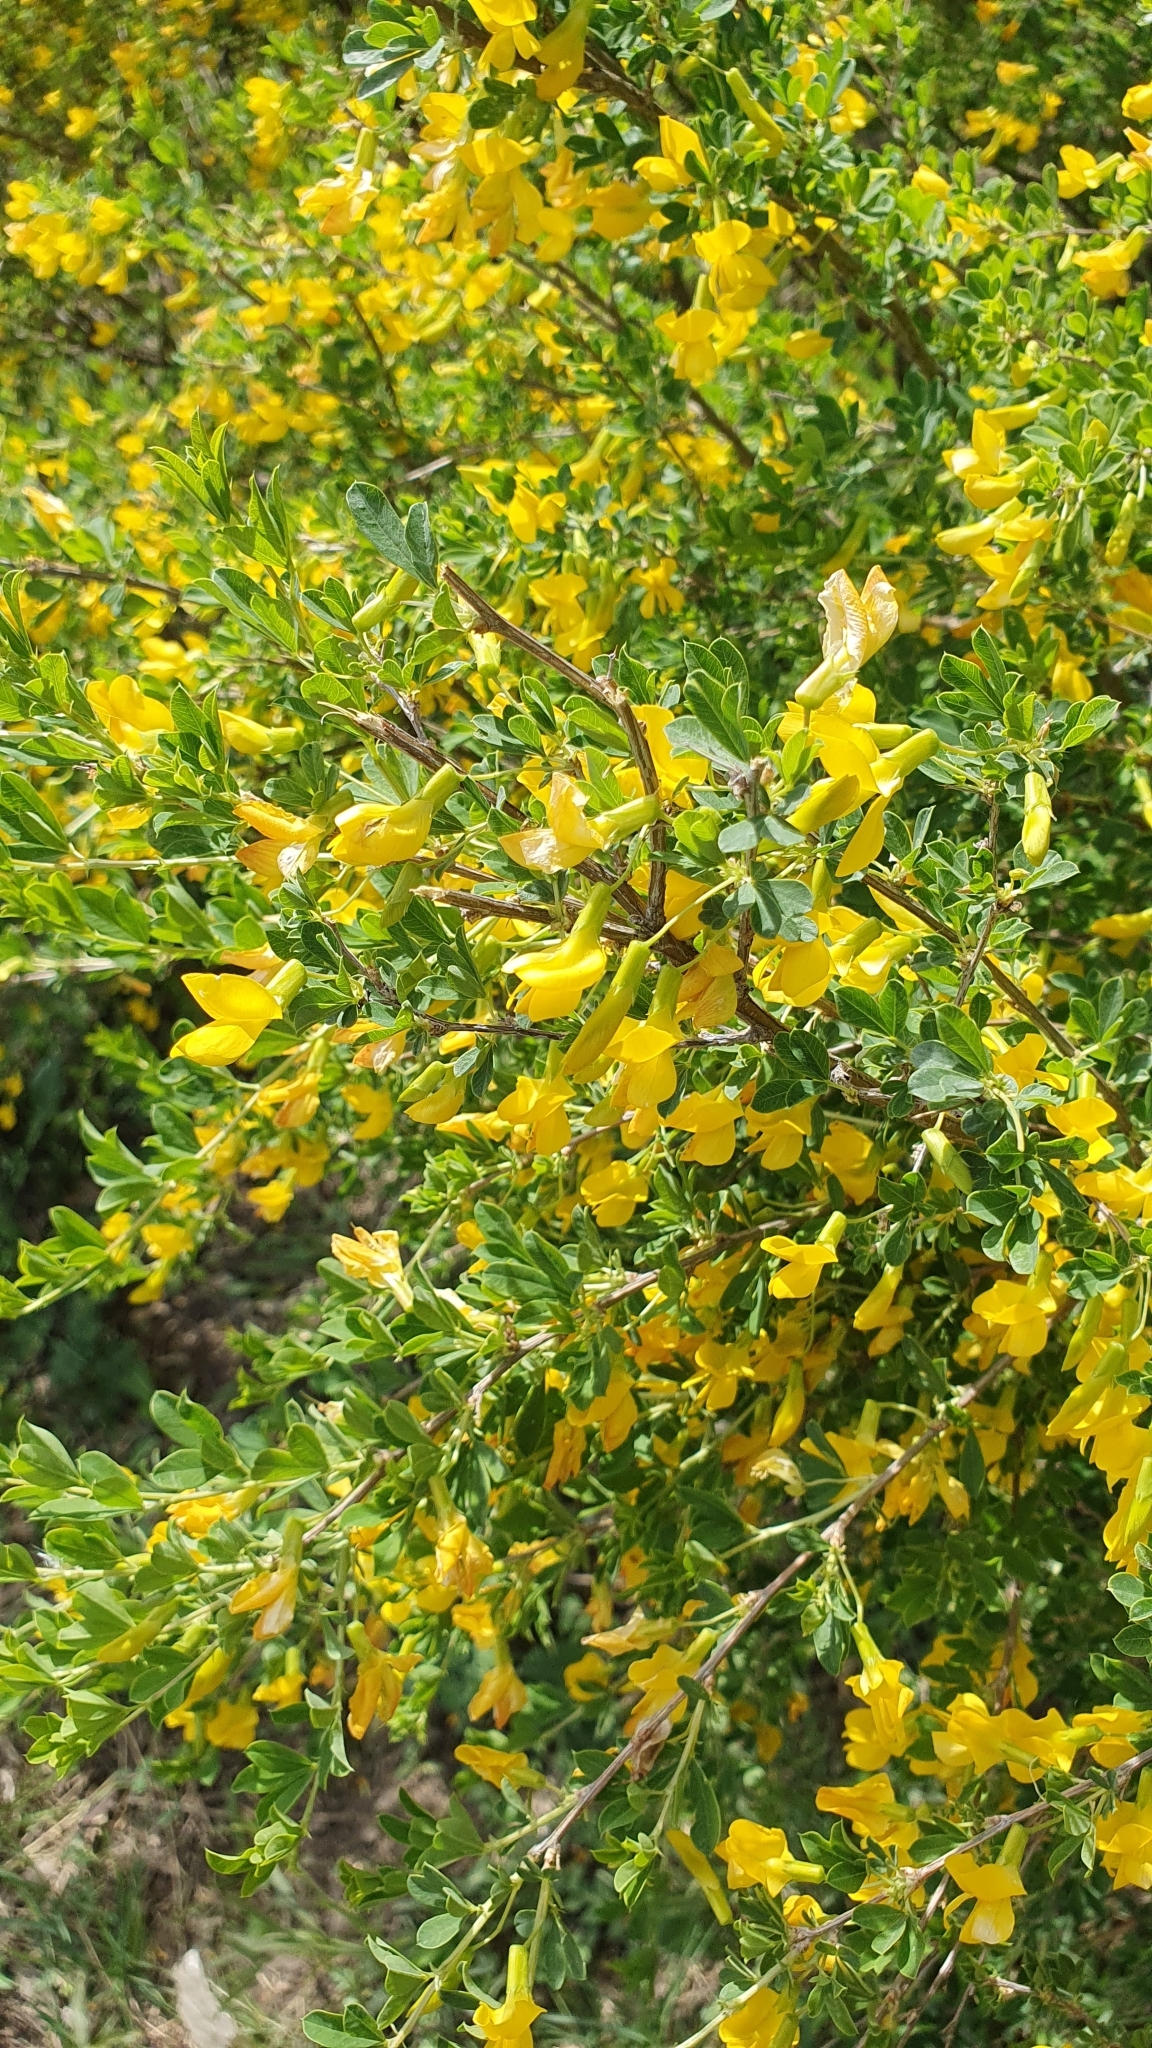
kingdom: Plantae
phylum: Tracheophyta
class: Magnoliopsida
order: Fabales
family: Fabaceae
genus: Caragana
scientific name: Caragana frutex
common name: Russian peashrub
